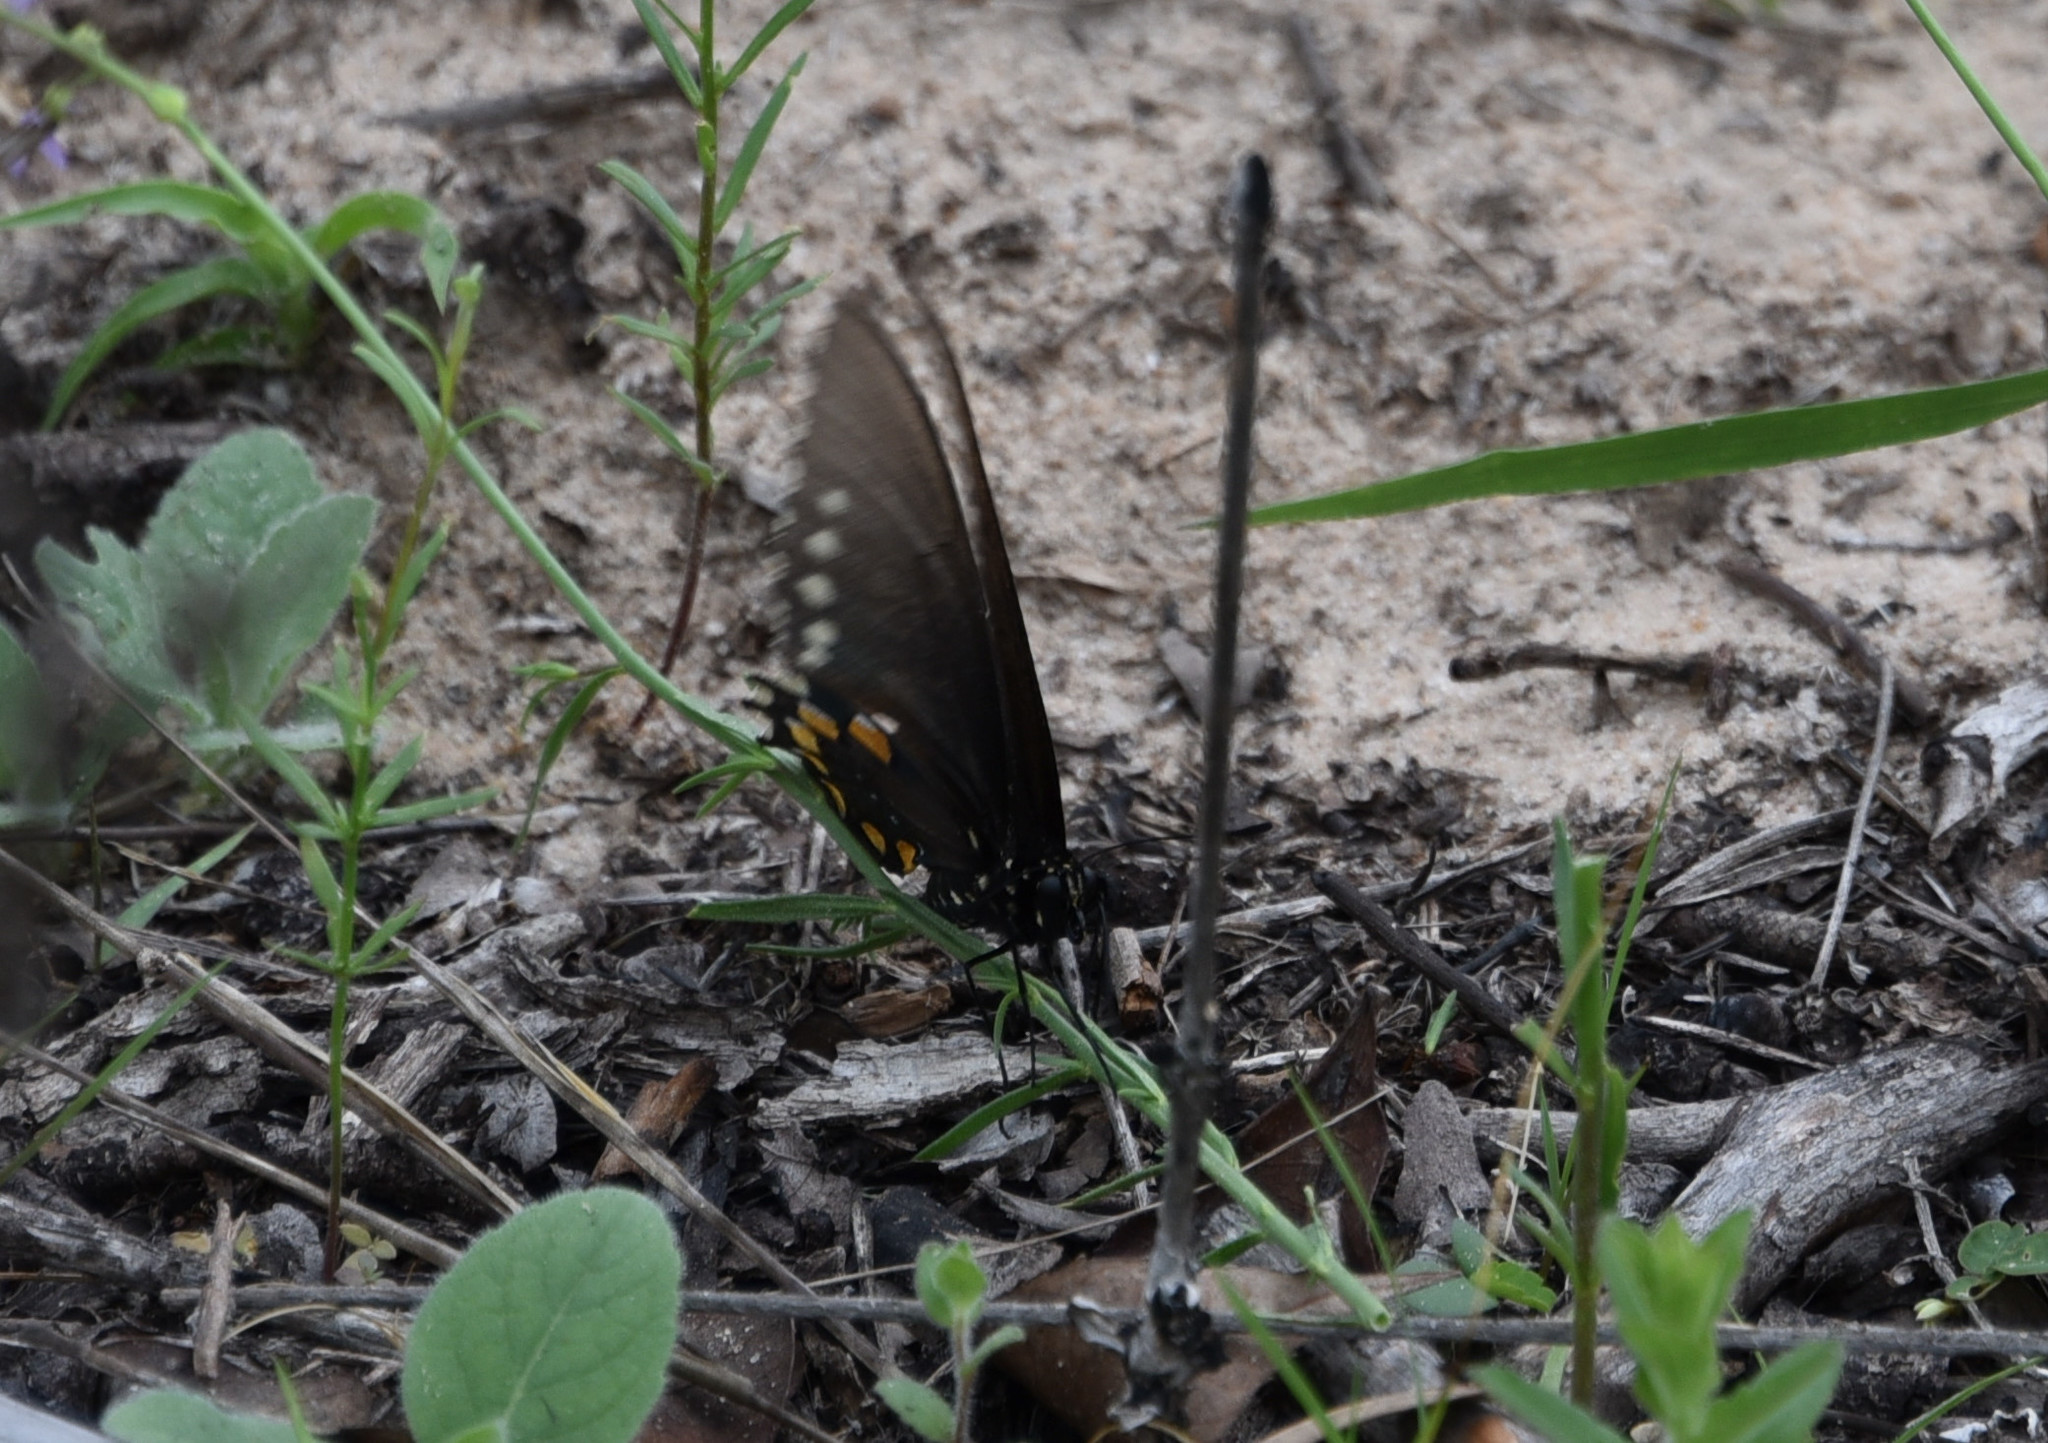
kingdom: Animalia
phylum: Arthropoda
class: Insecta
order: Lepidoptera
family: Papilionidae
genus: Battus
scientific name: Battus philenor
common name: Pipevine swallowtail
